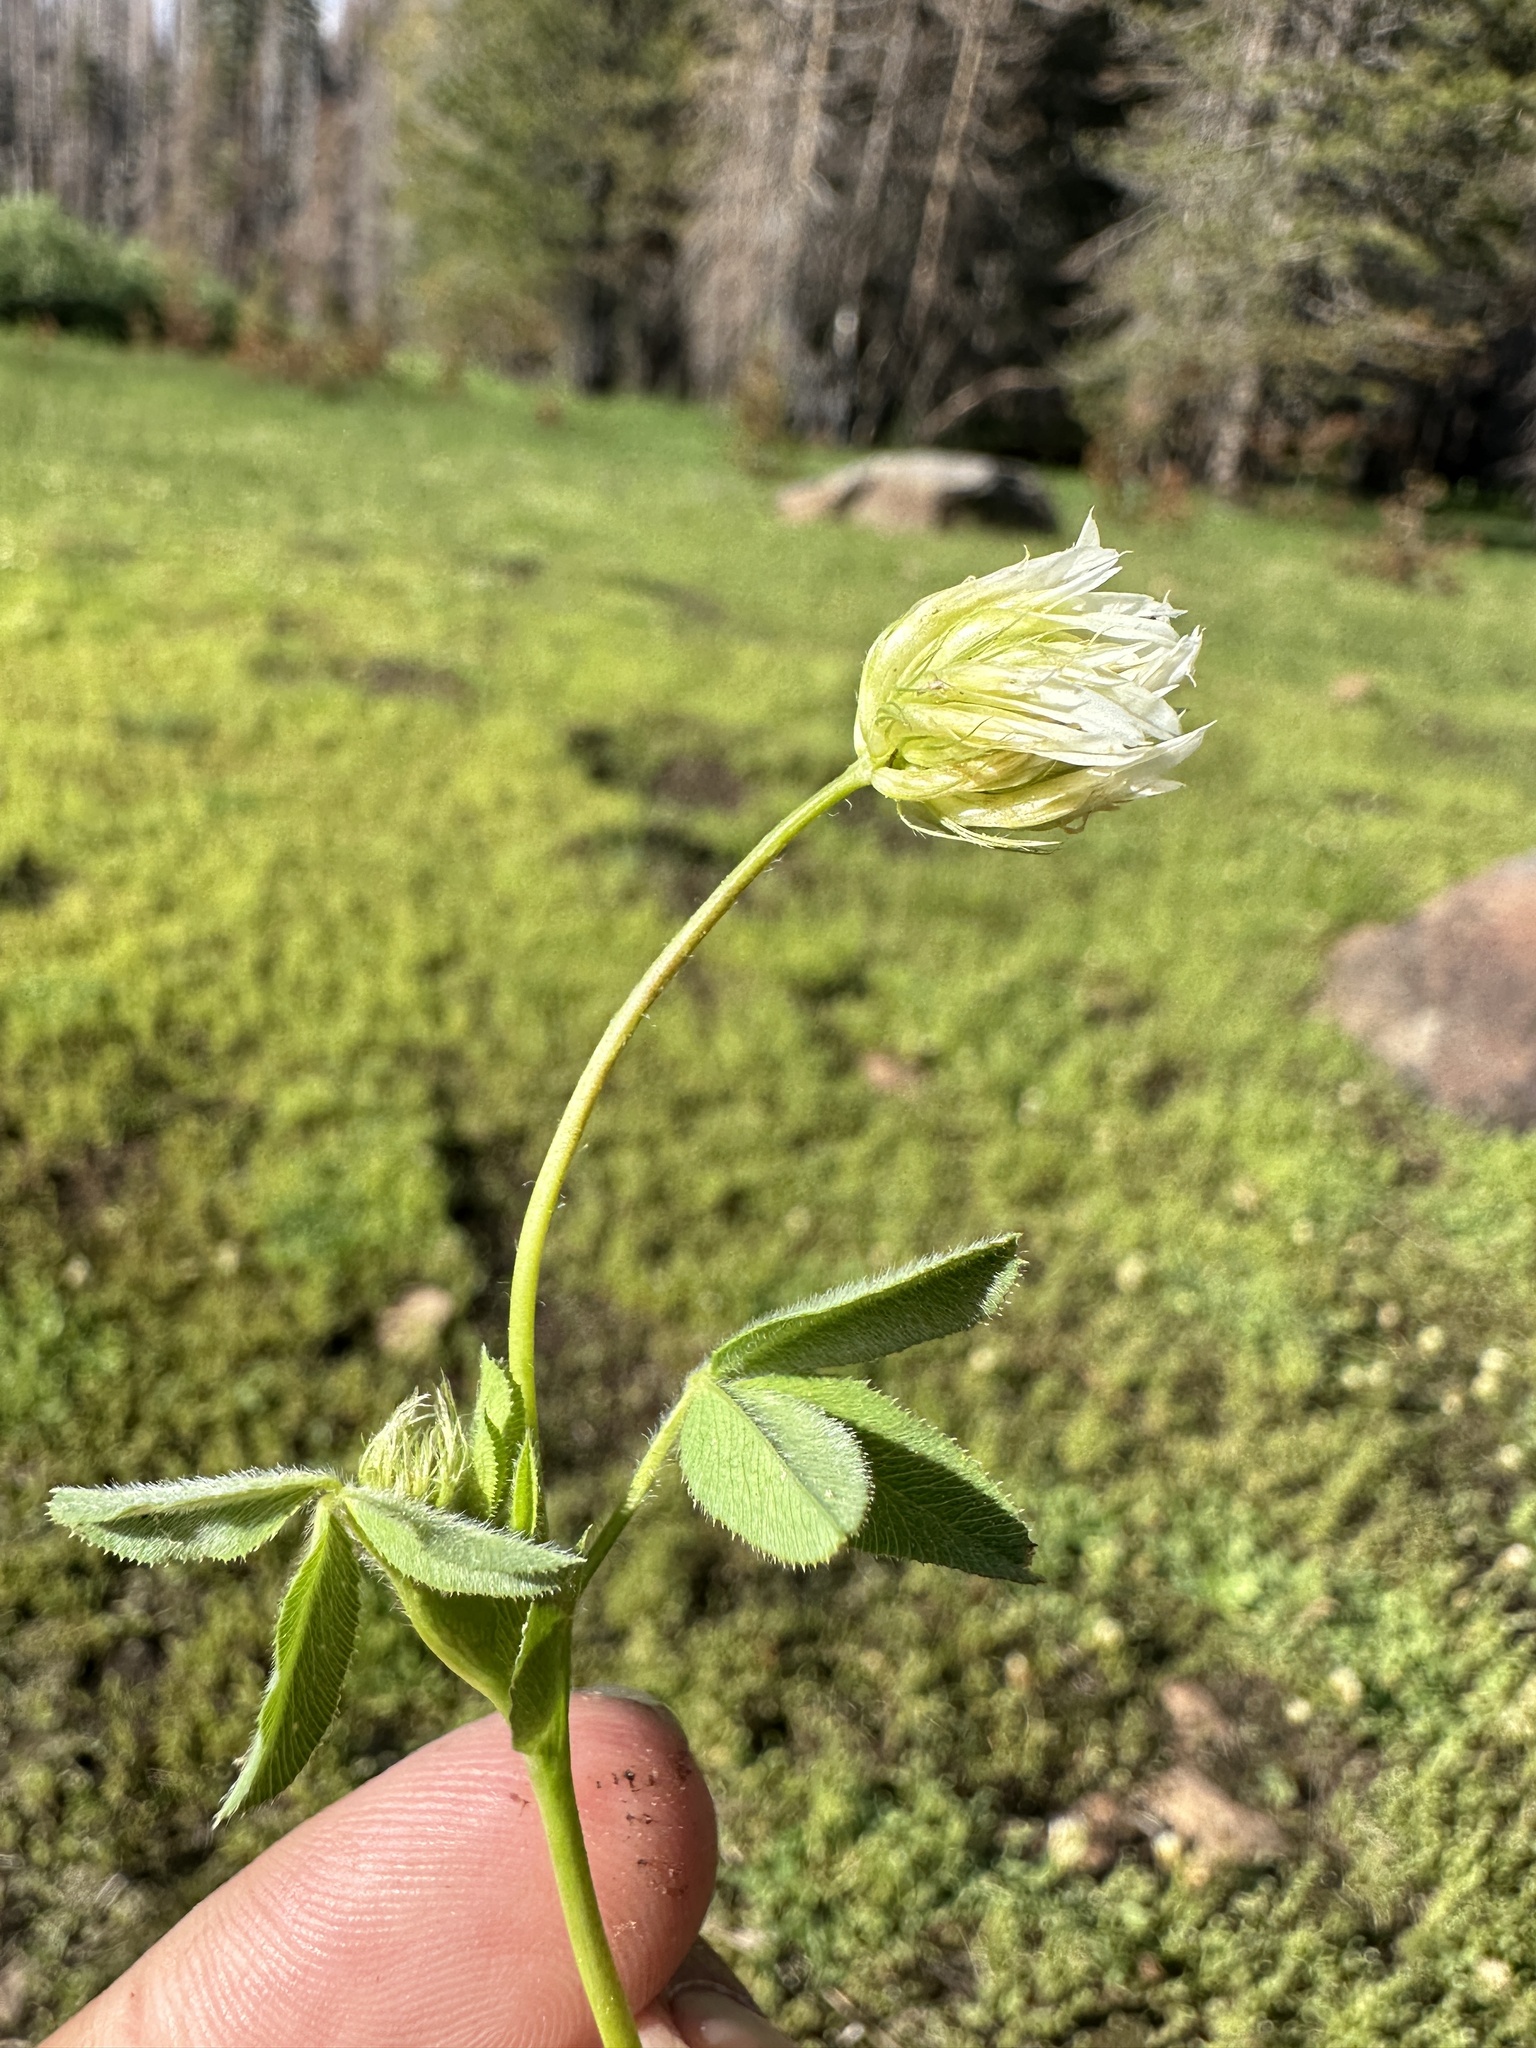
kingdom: Plantae
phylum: Tracheophyta
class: Magnoliopsida
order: Fabales
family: Fabaceae
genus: Trifolium
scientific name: Trifolium longipes
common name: Long-stalk clover
